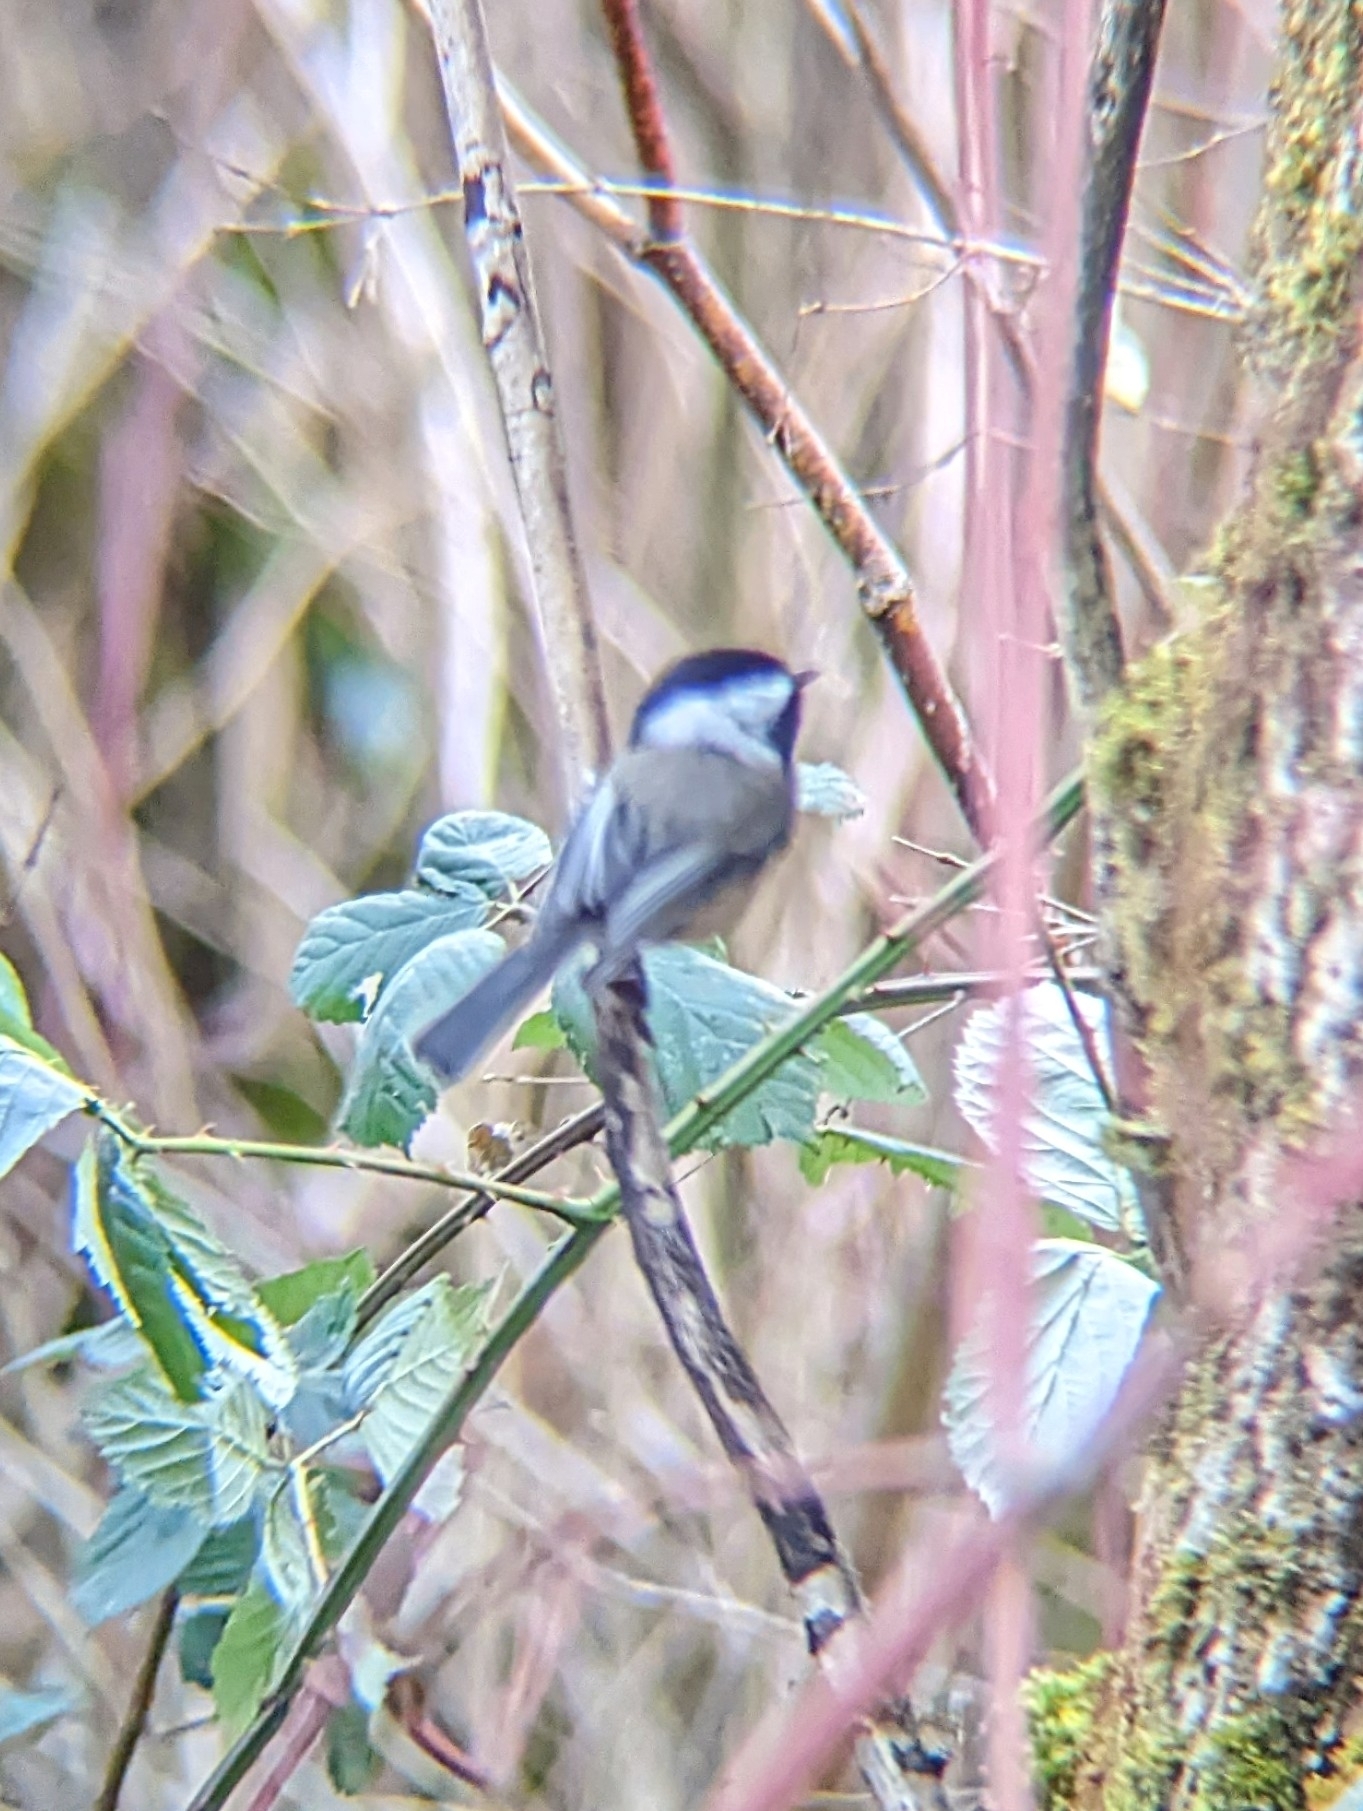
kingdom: Animalia
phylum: Chordata
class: Aves
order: Passeriformes
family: Paridae
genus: Poecile
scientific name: Poecile atricapillus
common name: Black-capped chickadee
